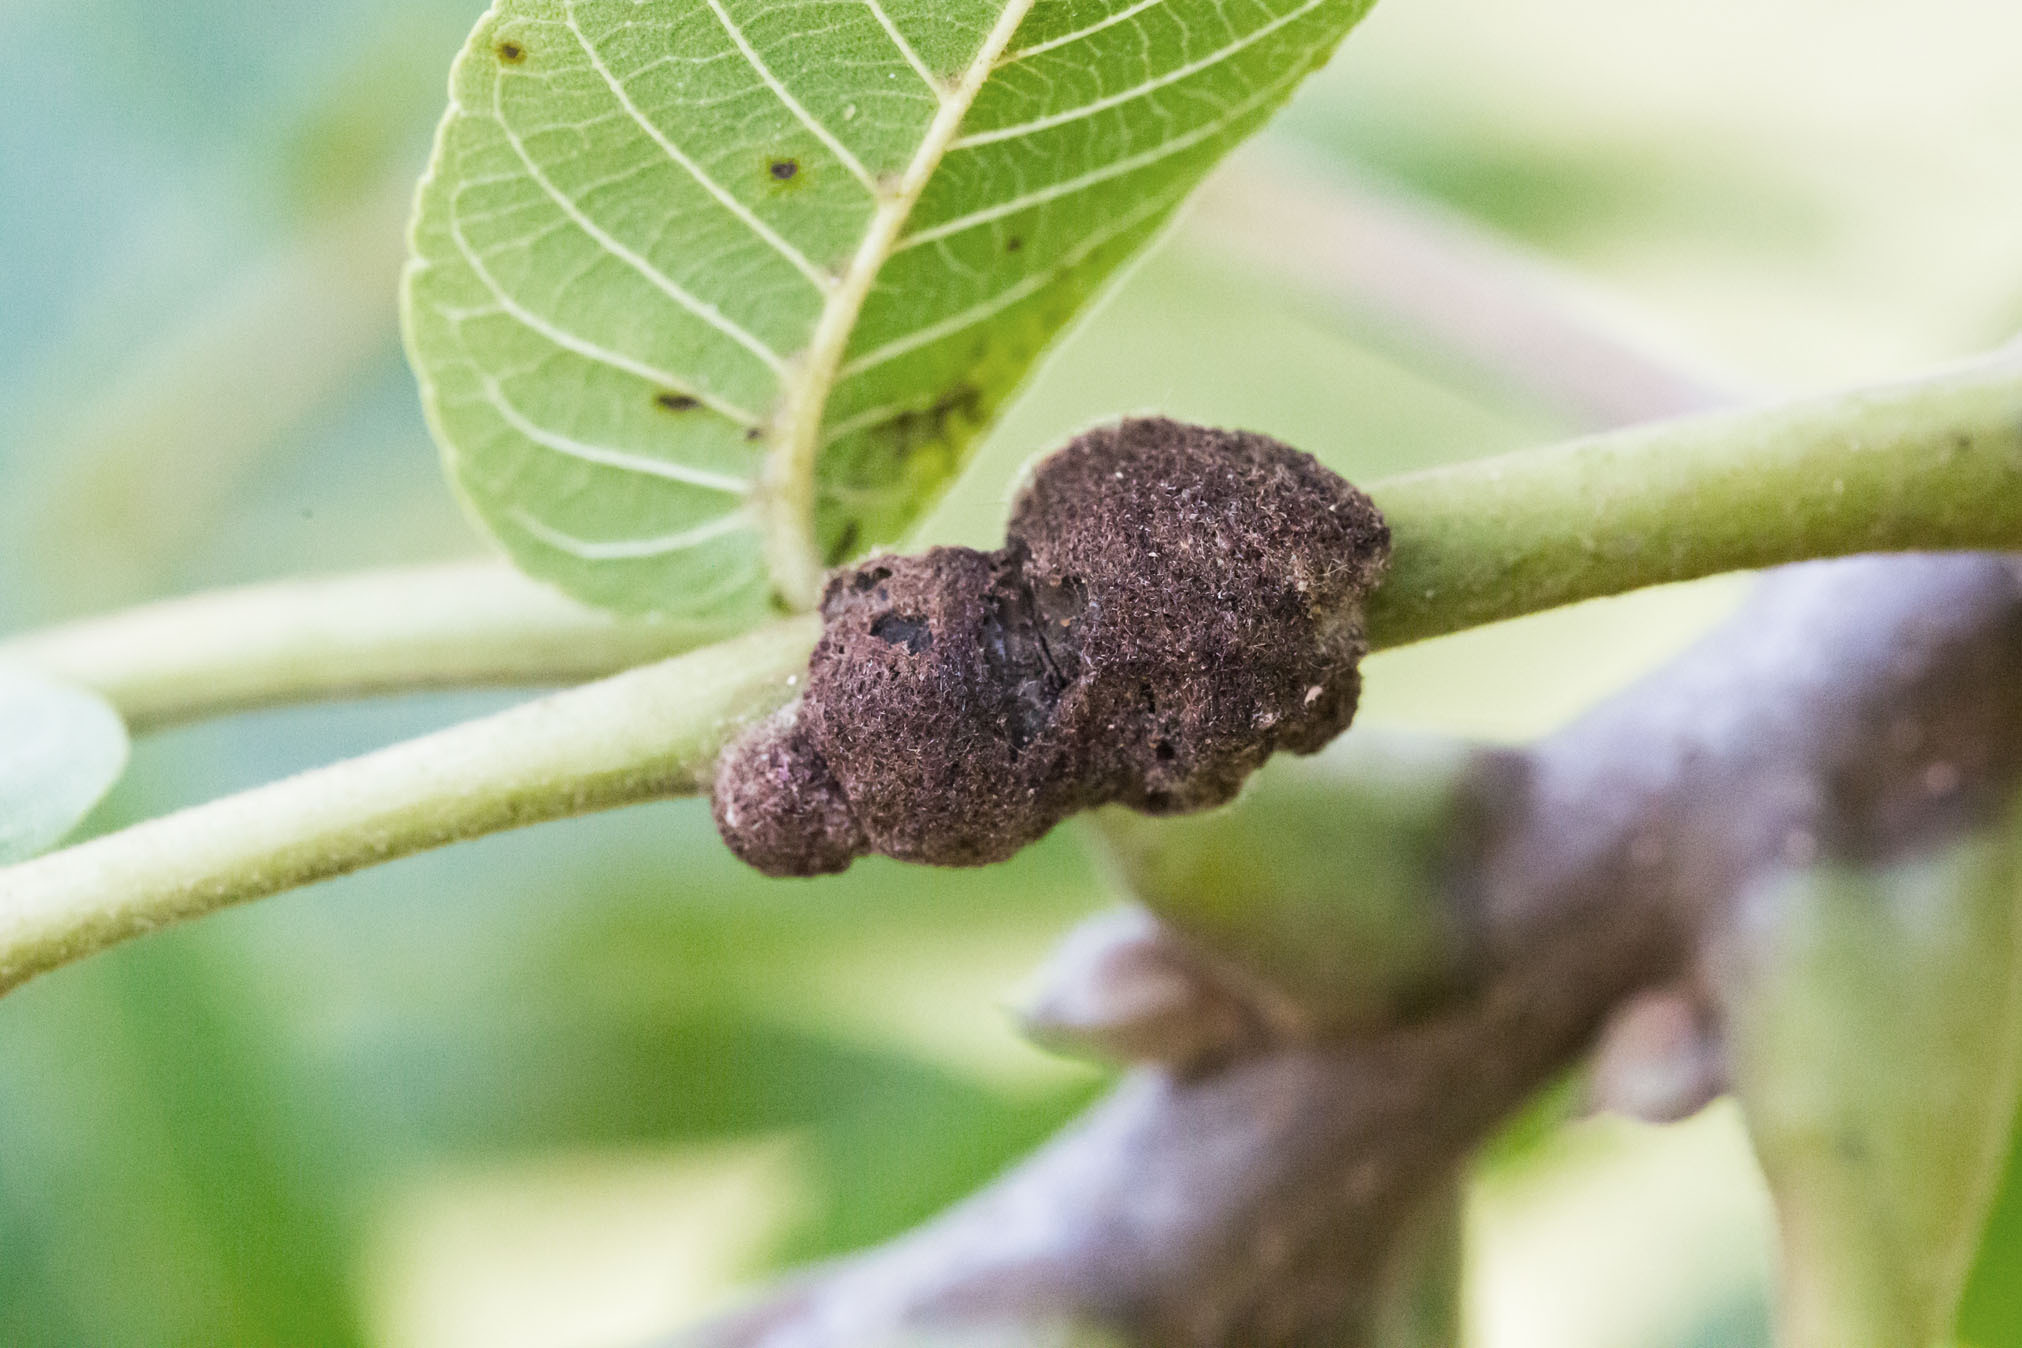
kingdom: Animalia
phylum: Arthropoda
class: Arachnida
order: Trombidiformes
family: Eriophyidae
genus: Aceria
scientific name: Aceria
